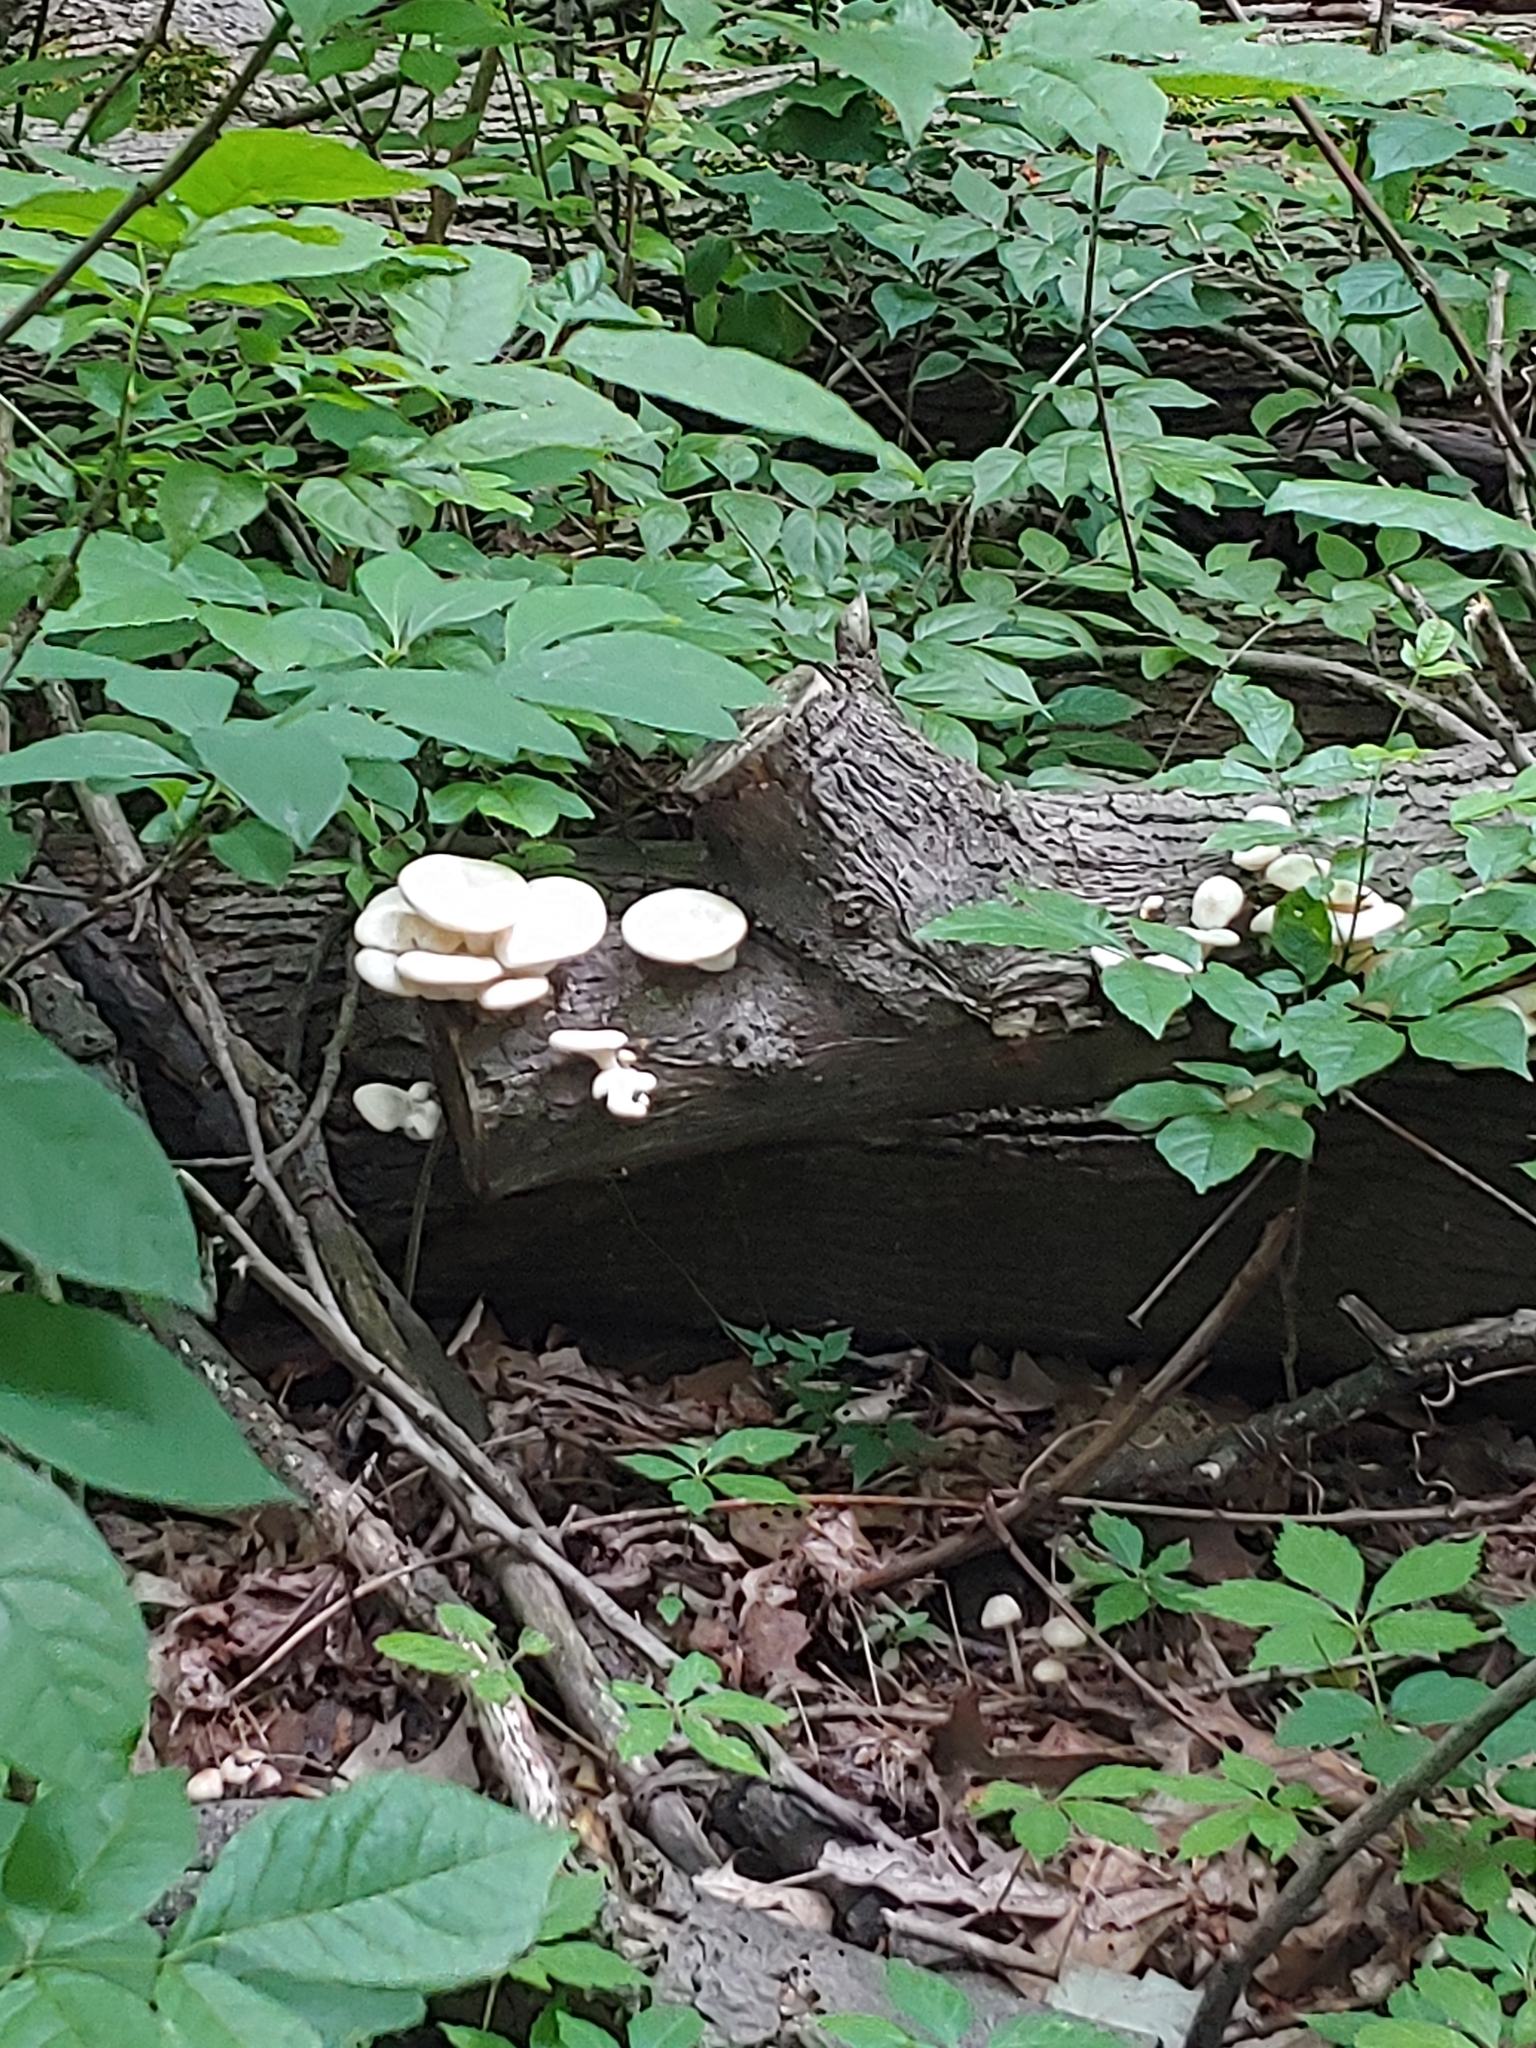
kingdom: Fungi
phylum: Basidiomycota
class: Agaricomycetes
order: Agaricales
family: Pleurotaceae
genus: Pleurotus
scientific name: Pleurotus pulmonarius
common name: Pale oyster
